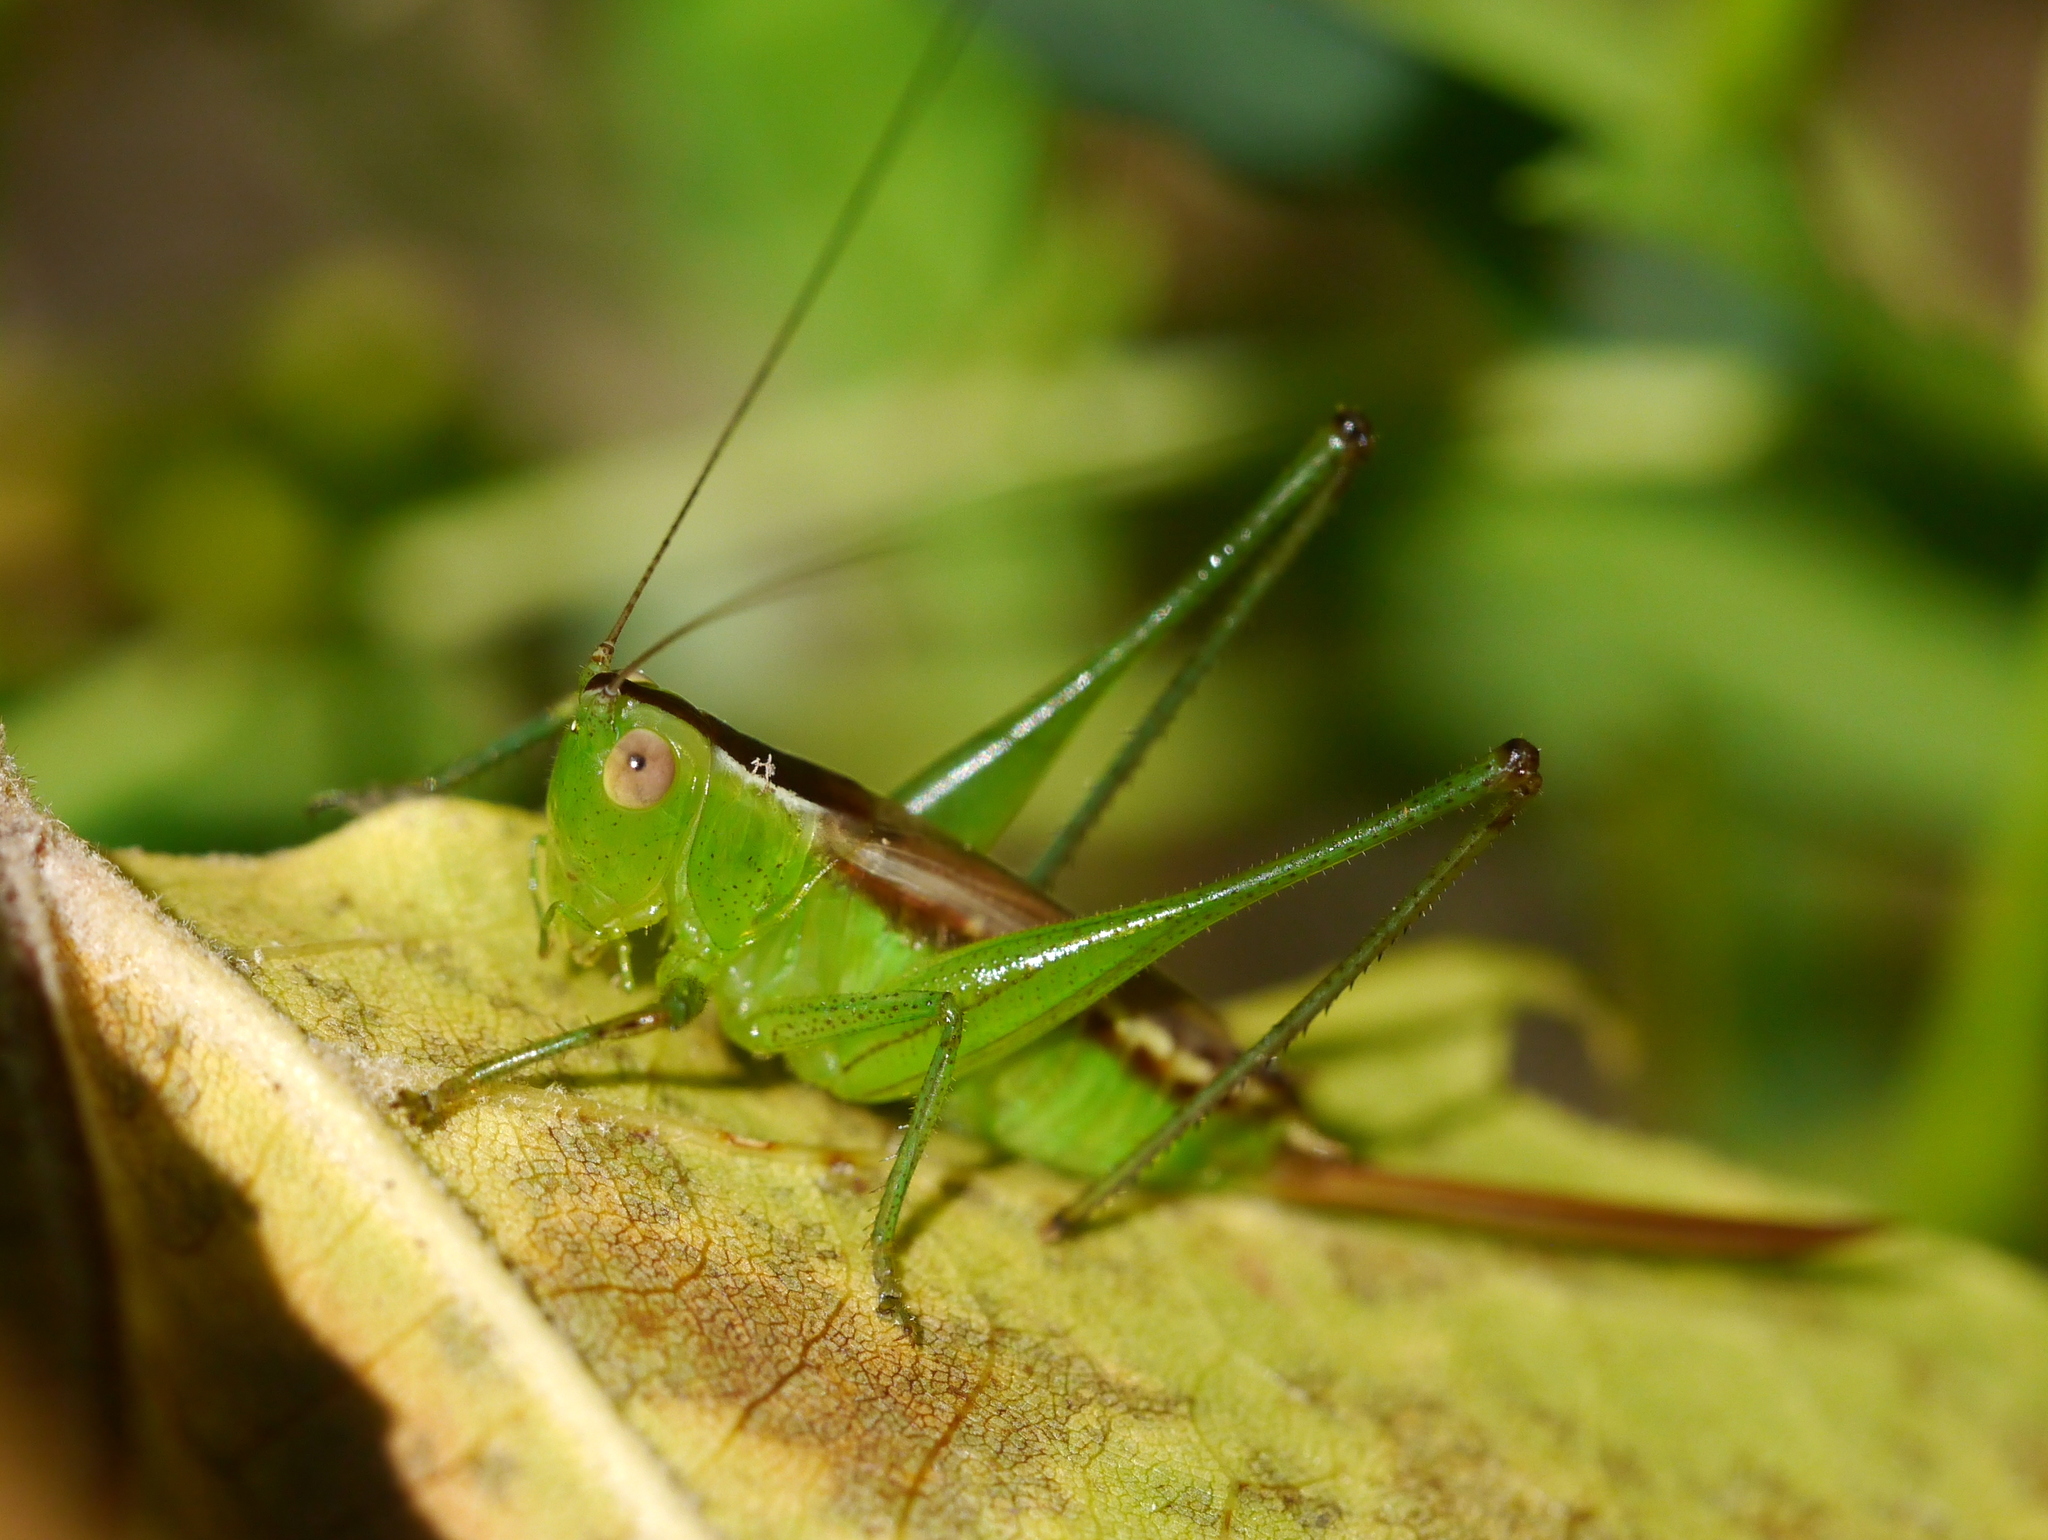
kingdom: Animalia
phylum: Arthropoda
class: Insecta
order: Orthoptera
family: Tettigoniidae
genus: Conocephalus
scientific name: Conocephalus brevipennis
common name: Short-winged meadow katydid
